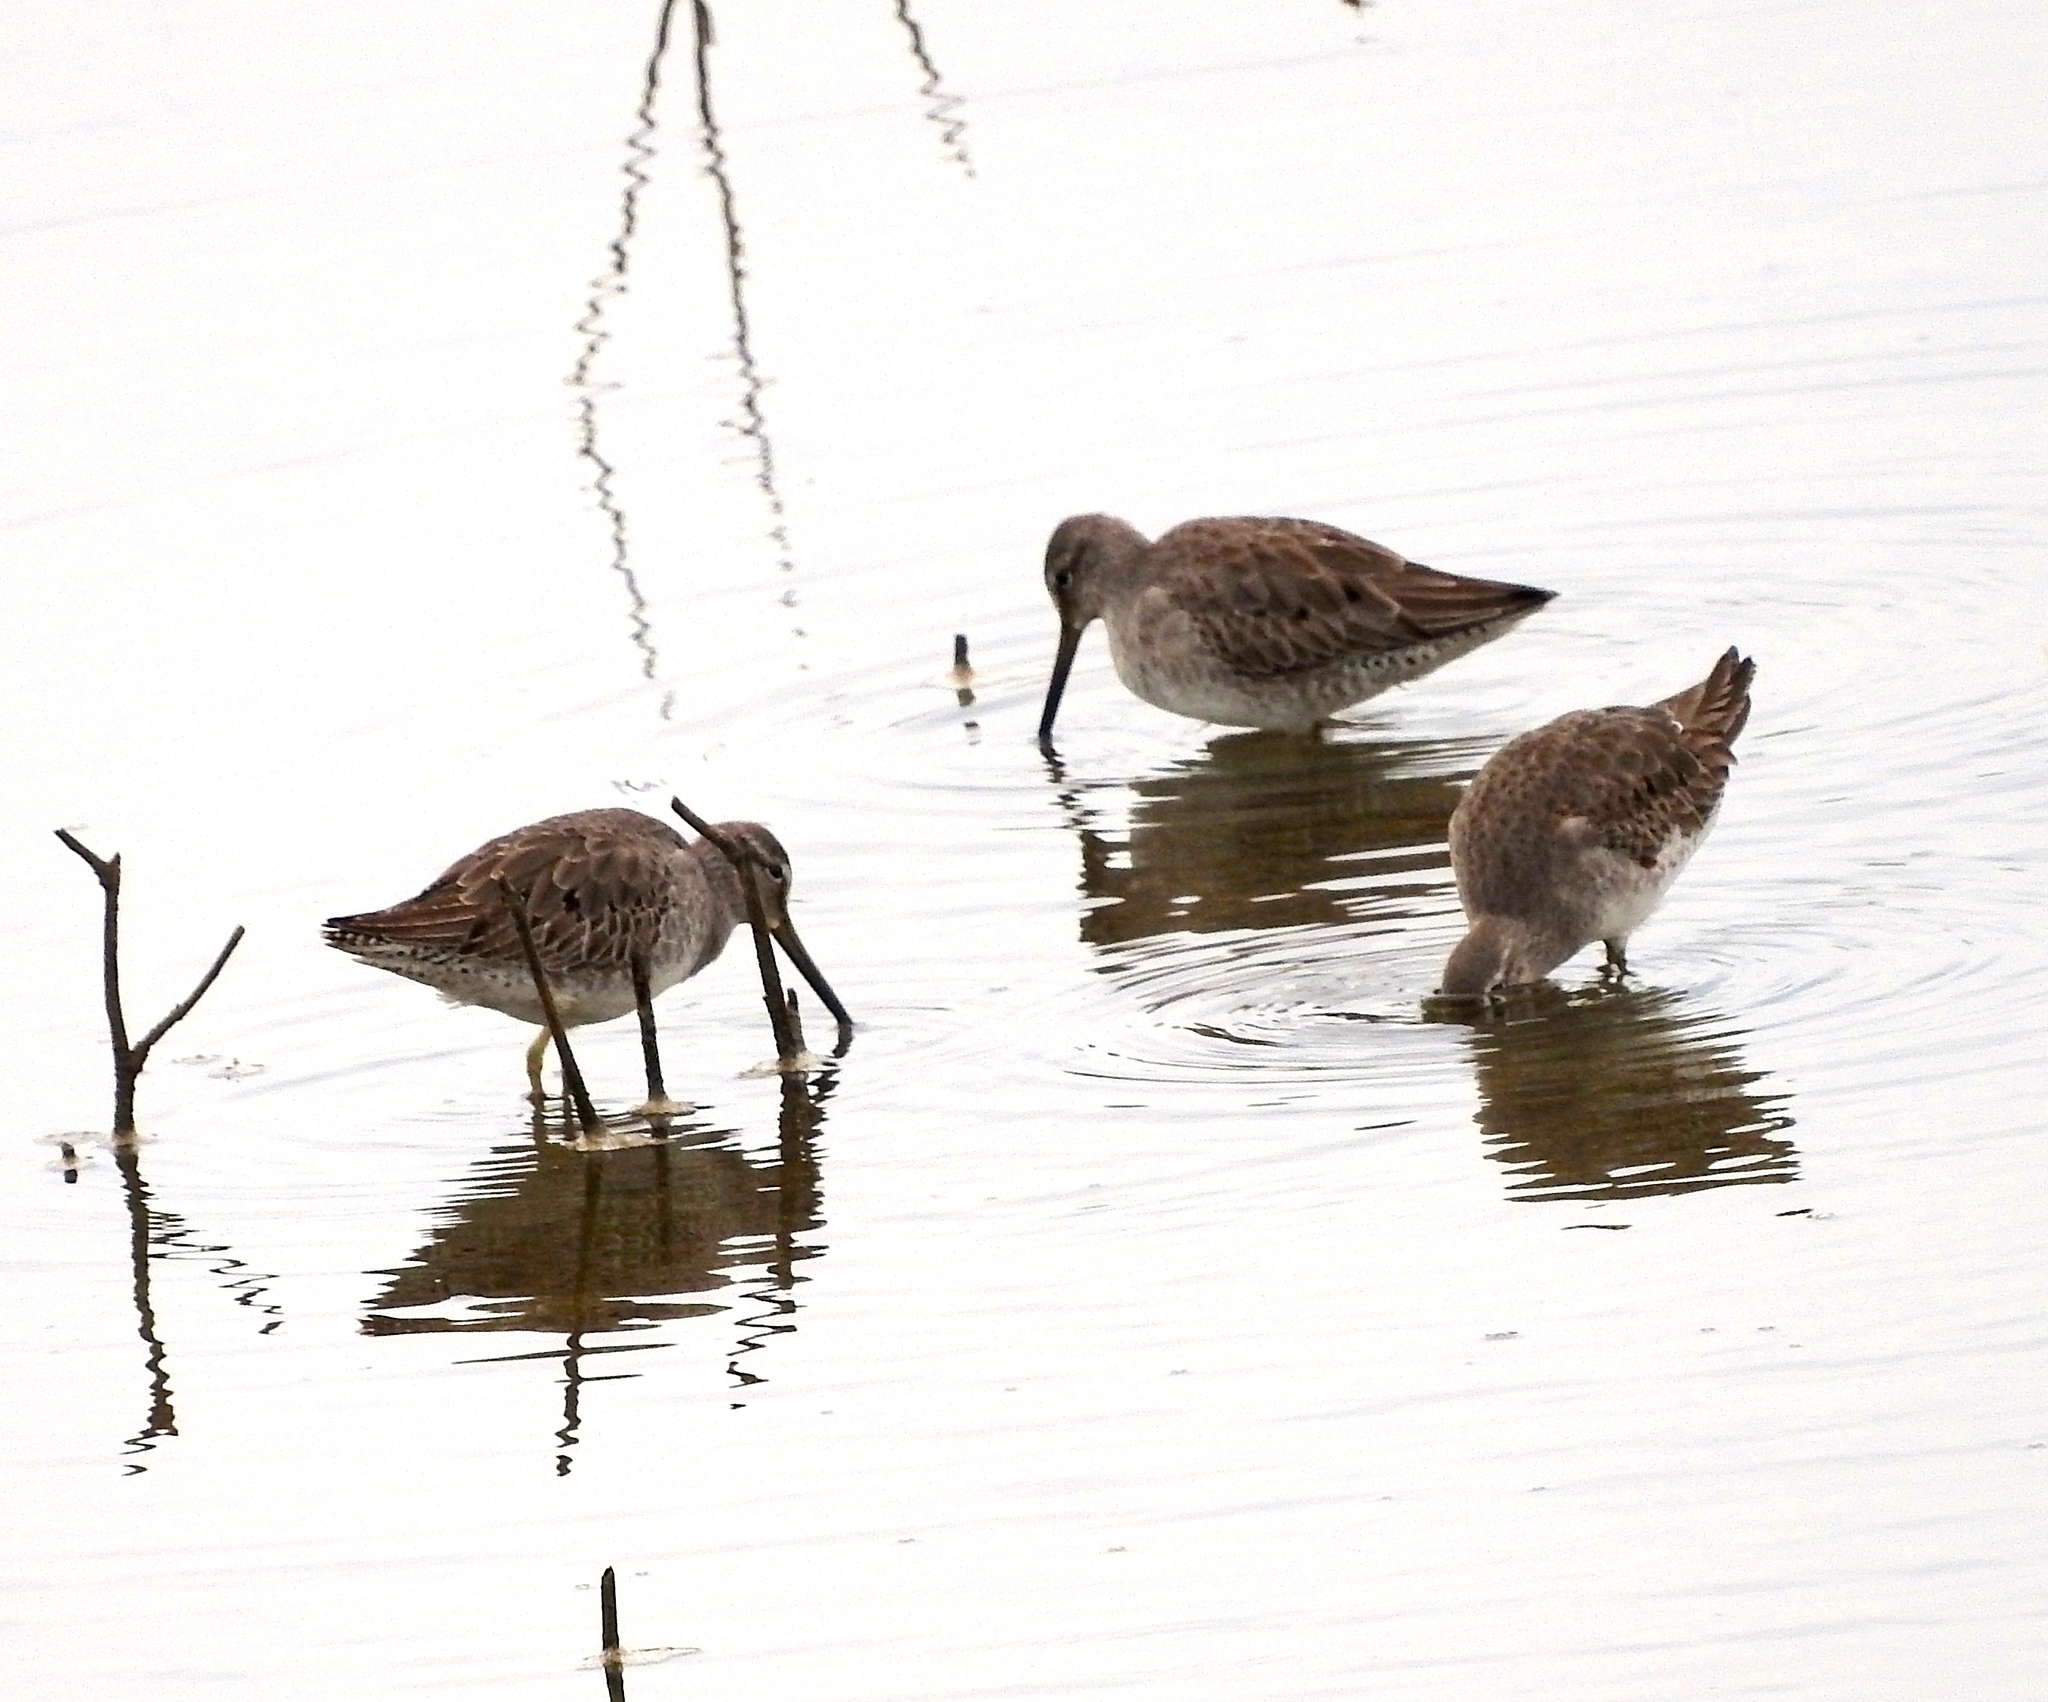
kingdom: Animalia
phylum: Chordata
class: Aves
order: Charadriiformes
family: Scolopacidae
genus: Limnodromus
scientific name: Limnodromus
